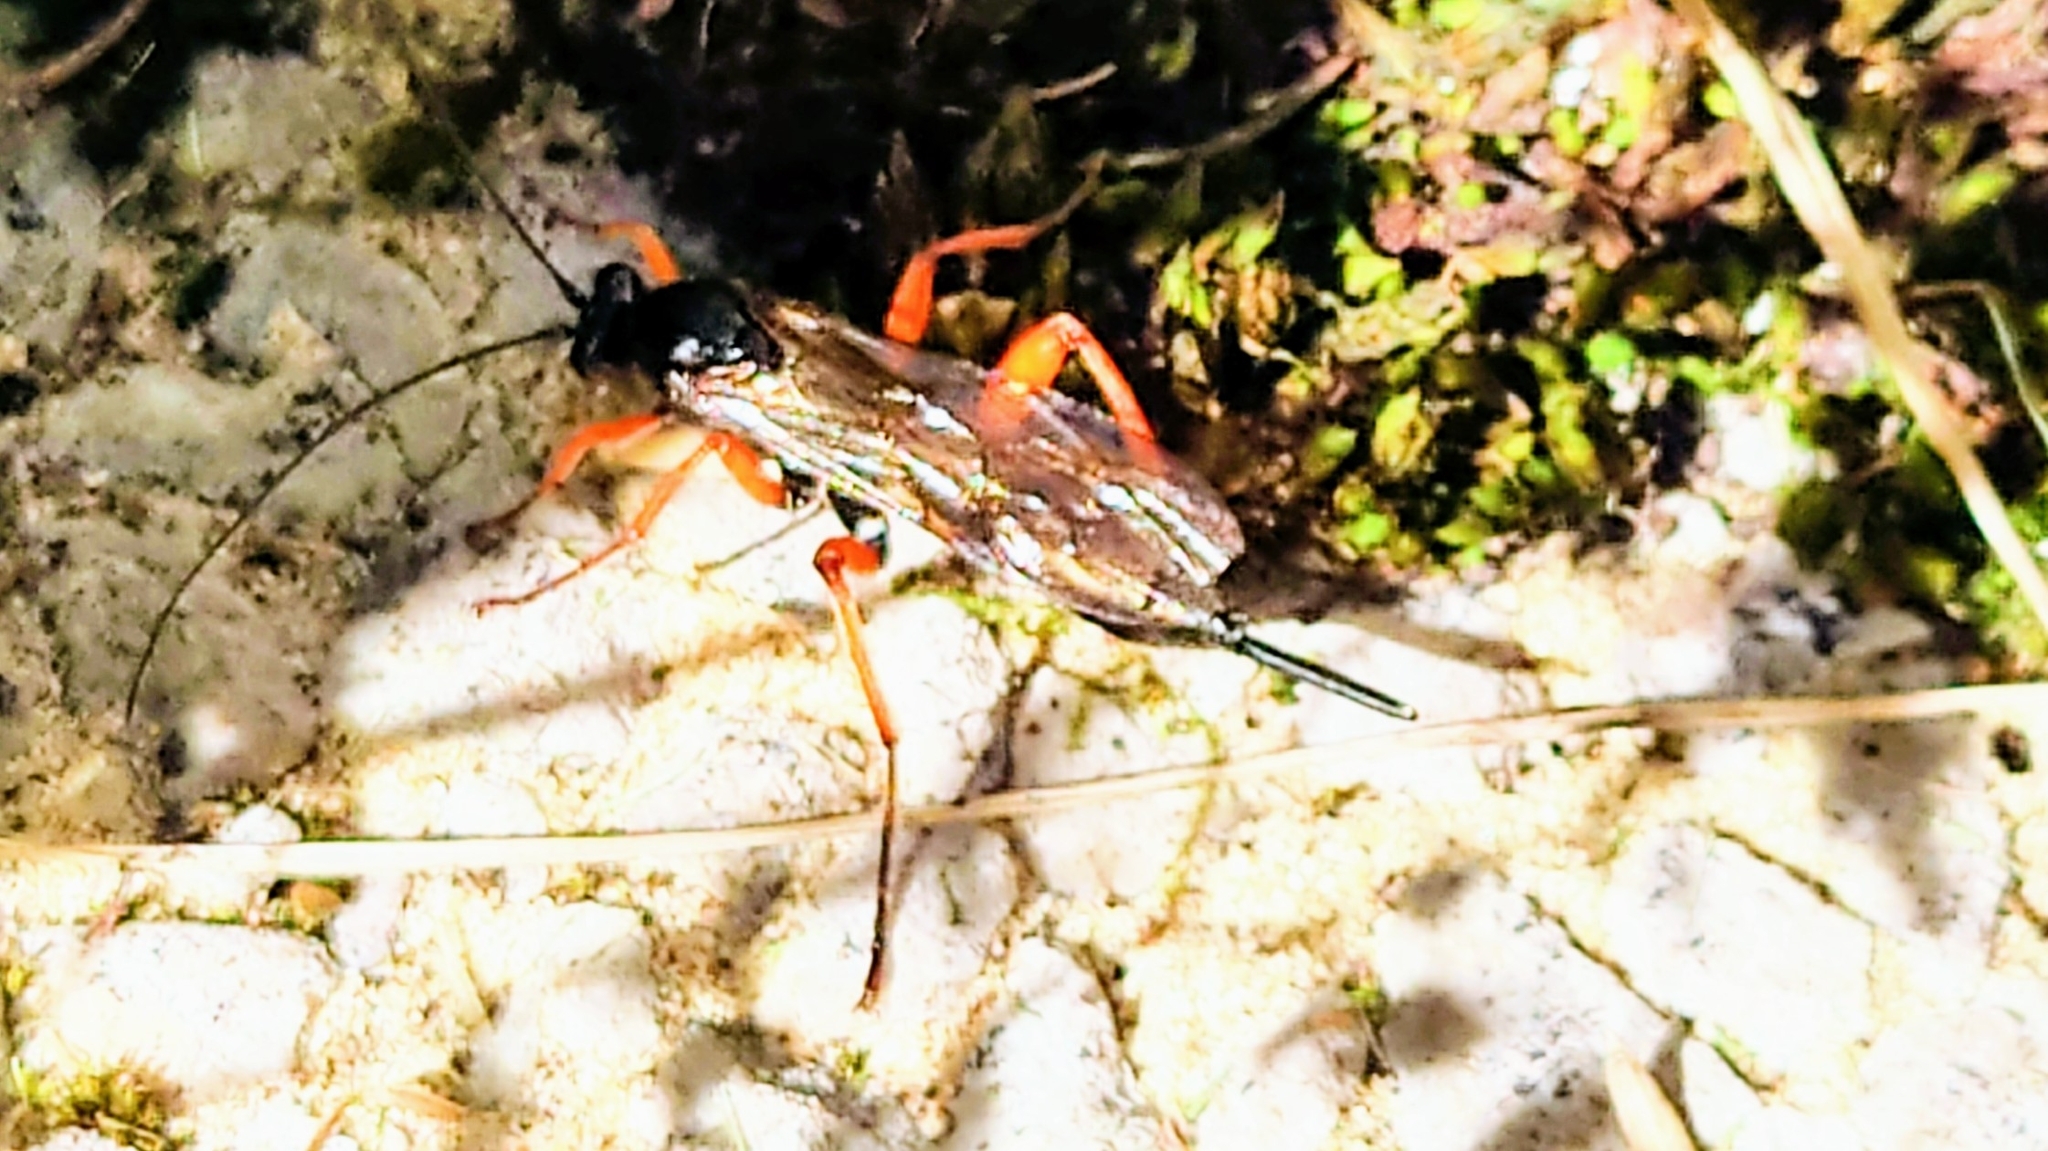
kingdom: Animalia
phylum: Arthropoda
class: Insecta
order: Hymenoptera
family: Ichneumonidae
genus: Pimpla
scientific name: Pimpla rufipes
